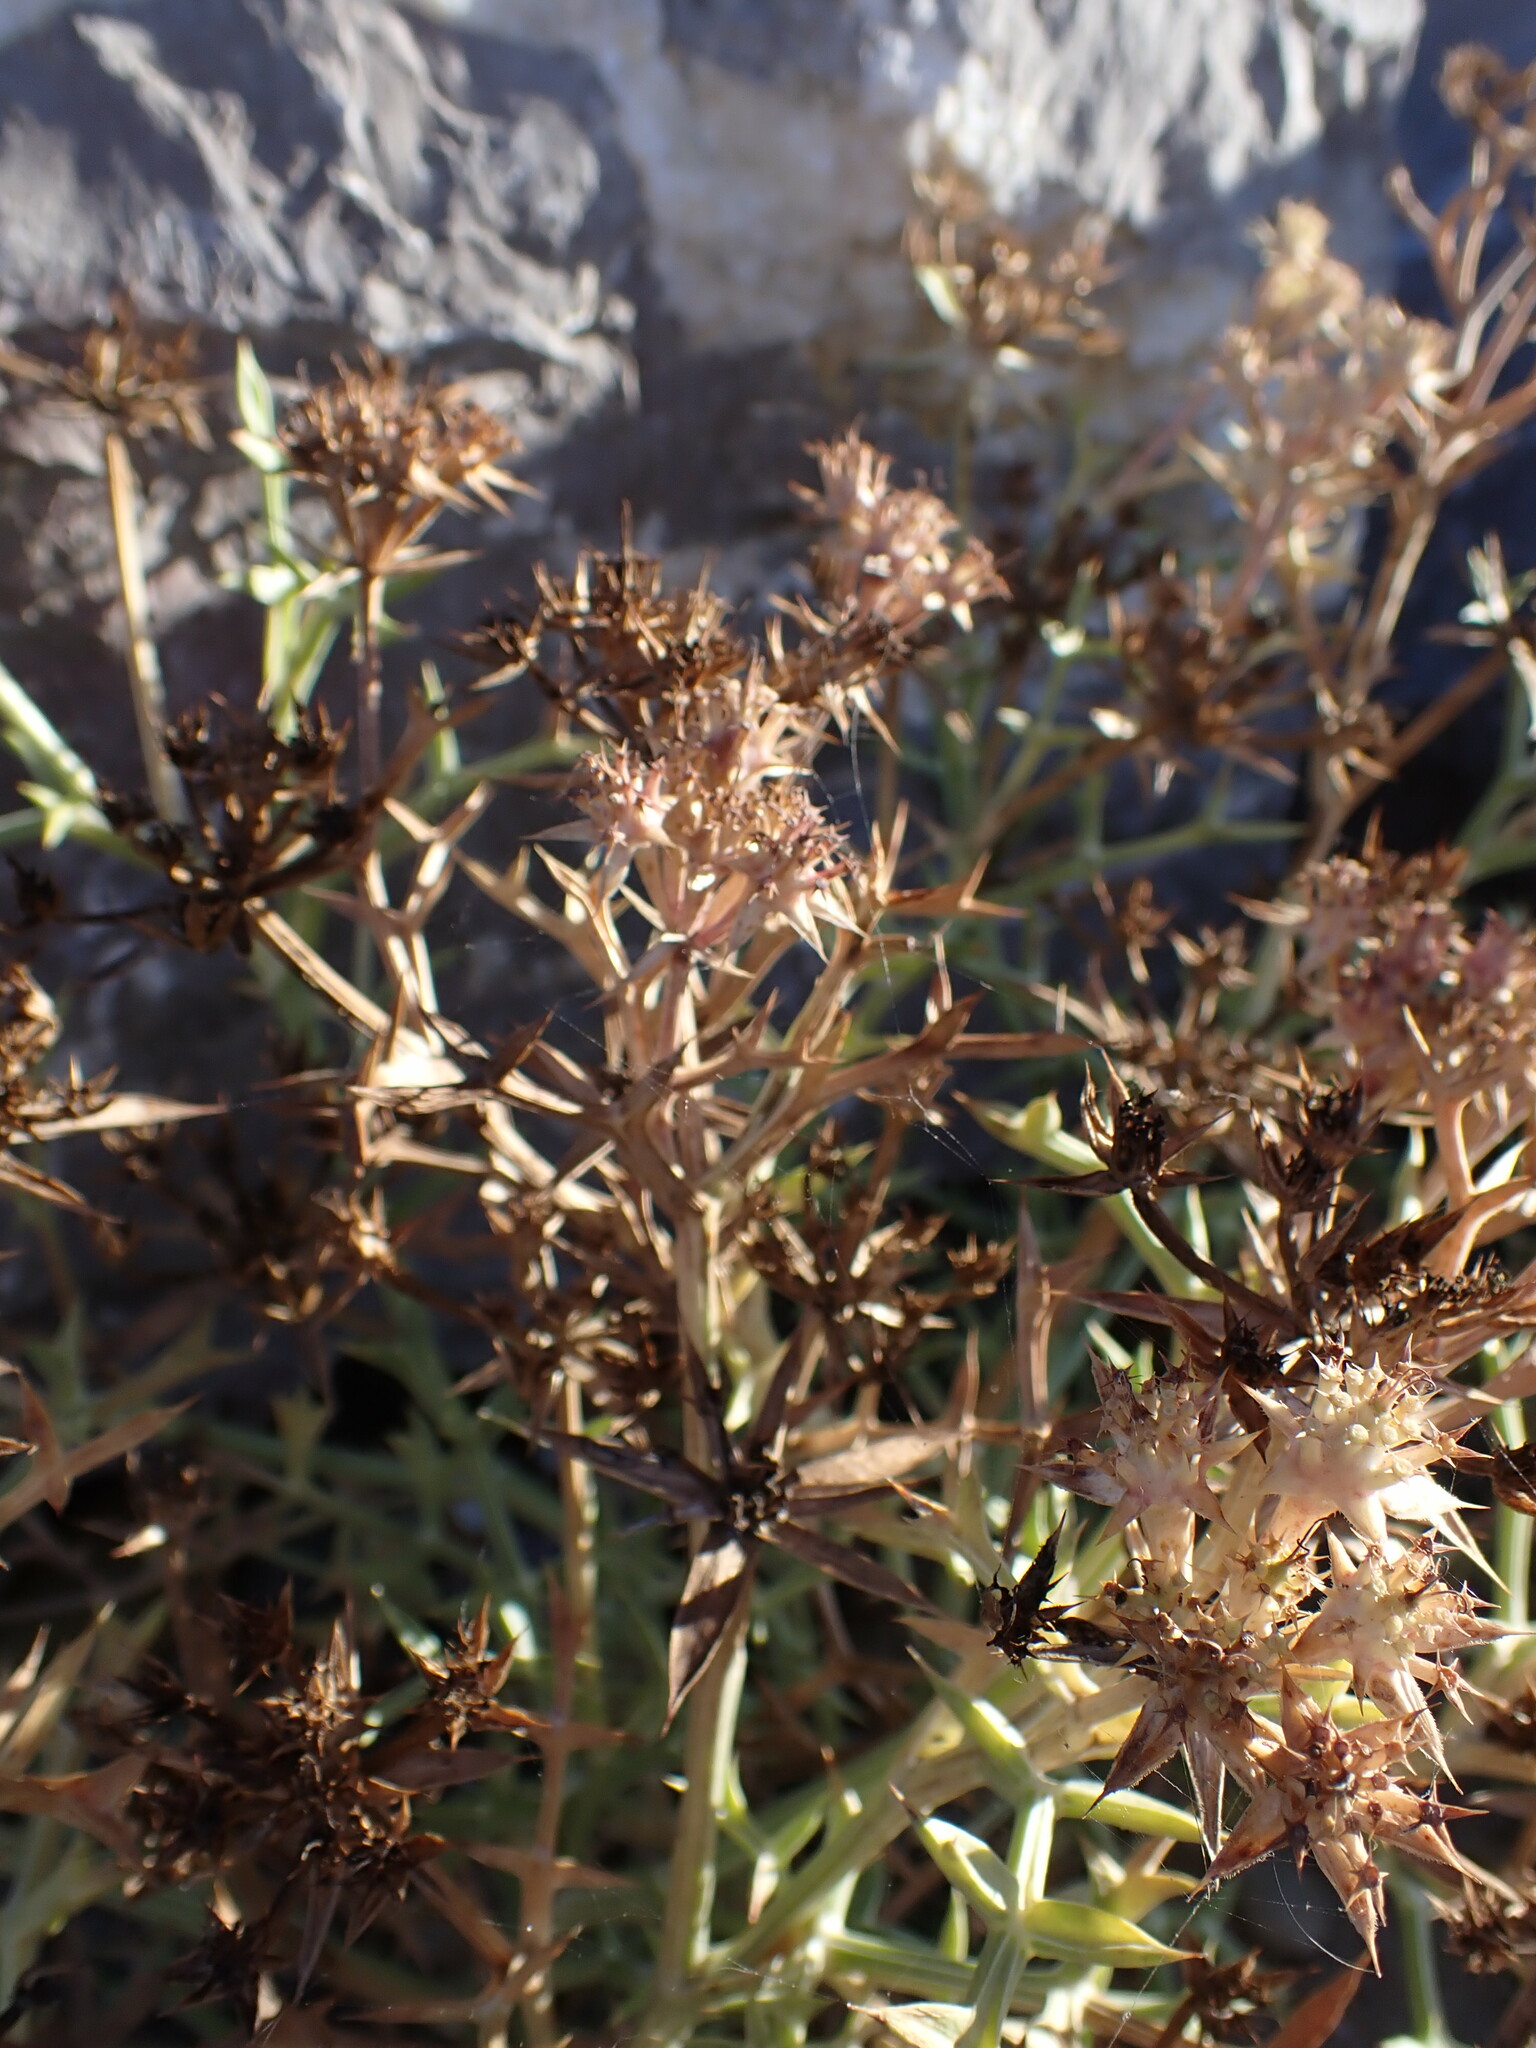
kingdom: Plantae
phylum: Tracheophyta
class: Magnoliopsida
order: Apiales
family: Apiaceae
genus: Echinophora
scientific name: Echinophora spinosa
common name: Prickly samphire
